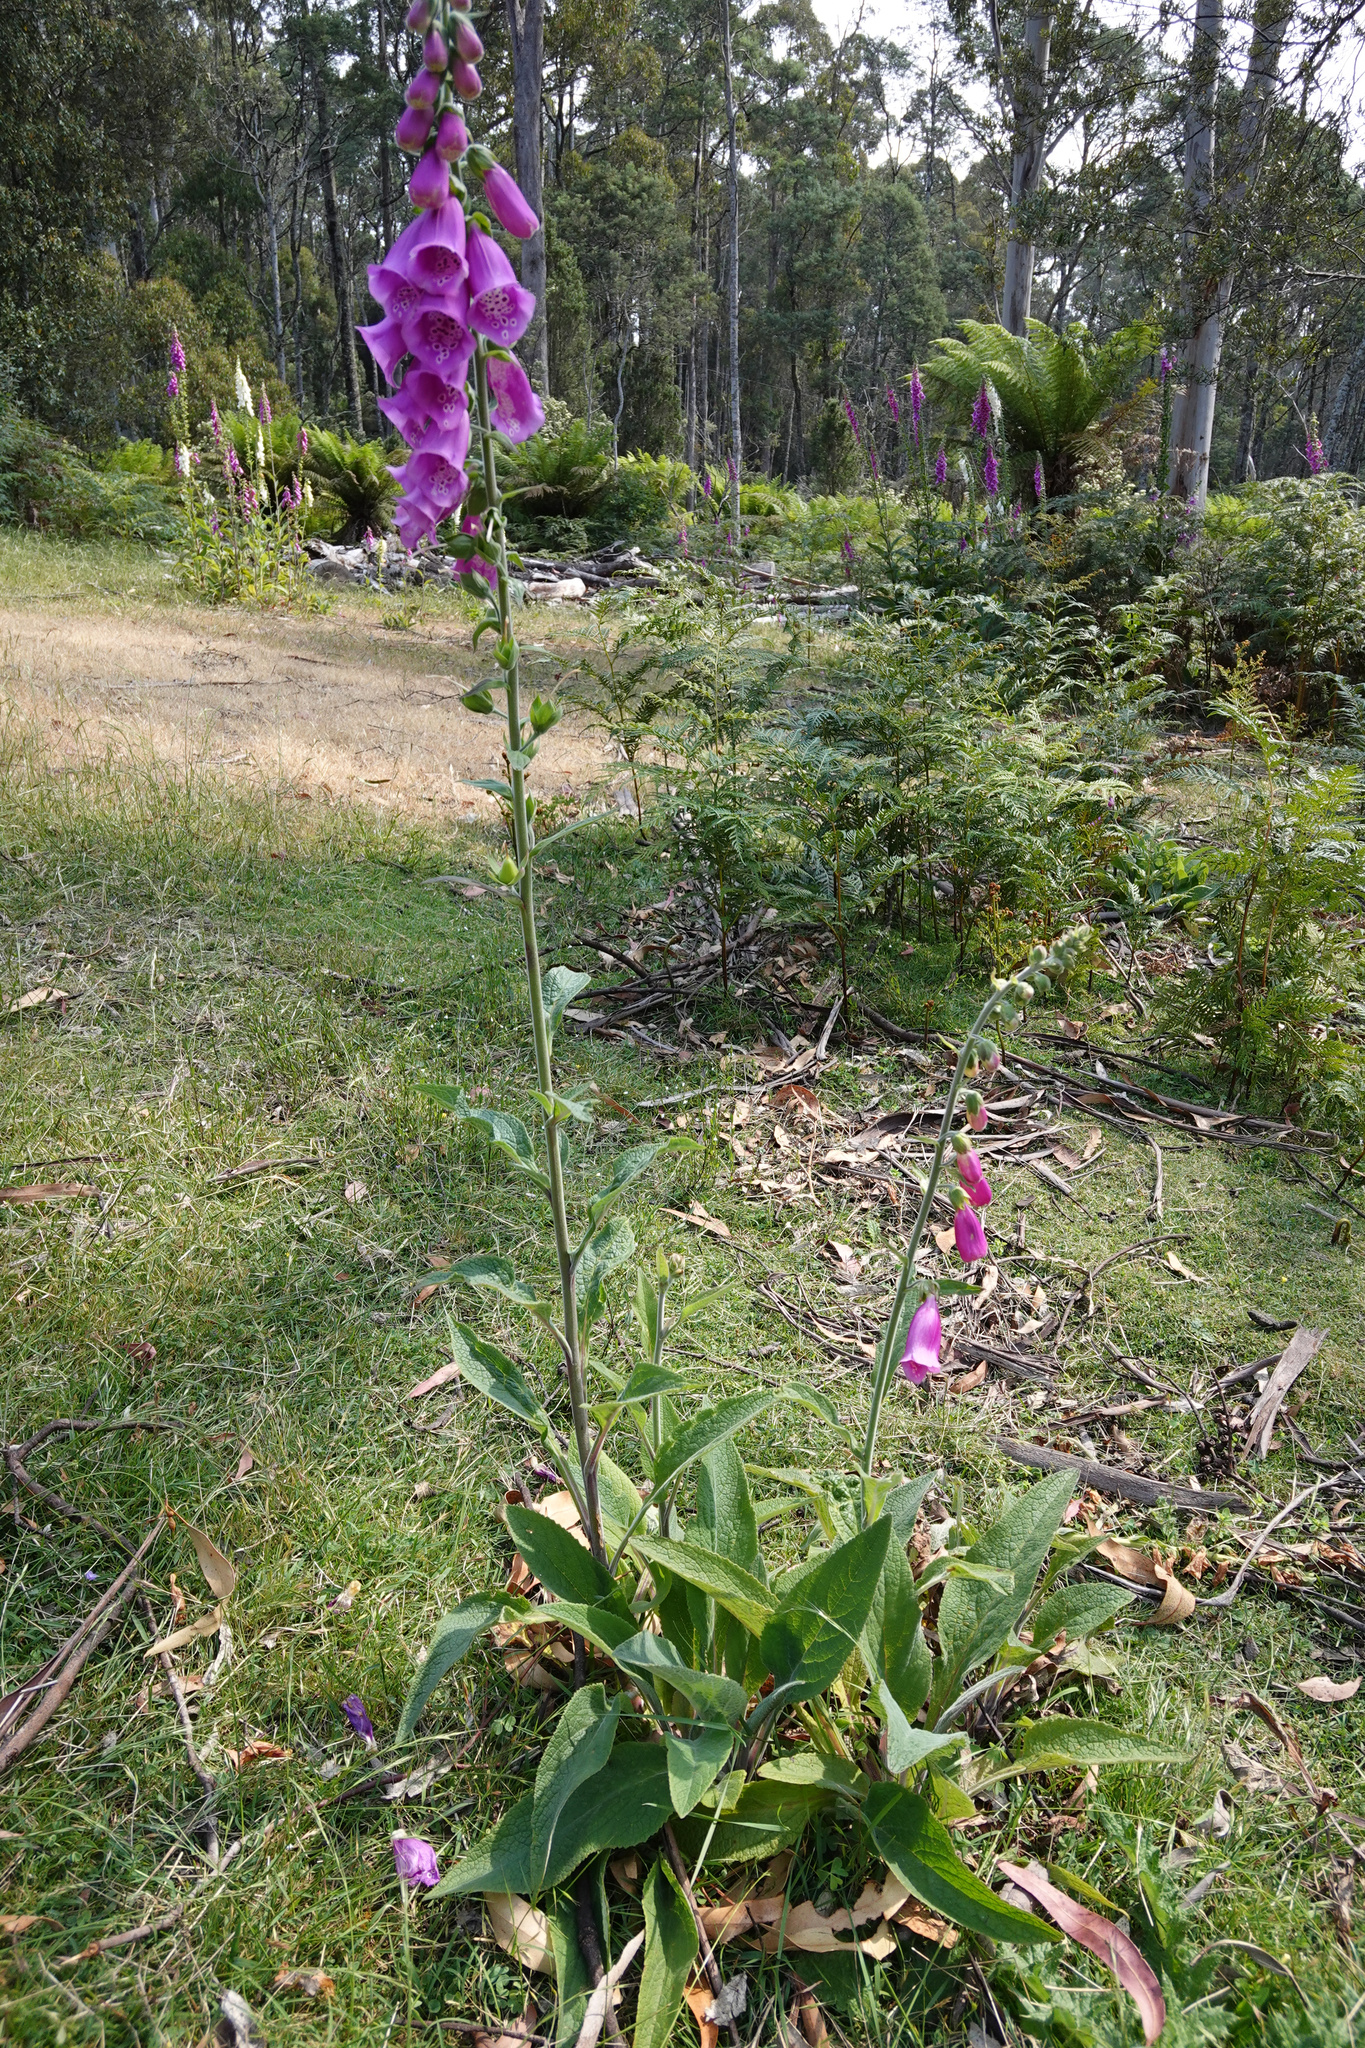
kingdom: Plantae
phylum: Tracheophyta
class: Magnoliopsida
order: Lamiales
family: Plantaginaceae
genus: Digitalis
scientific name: Digitalis purpurea
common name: Foxglove
